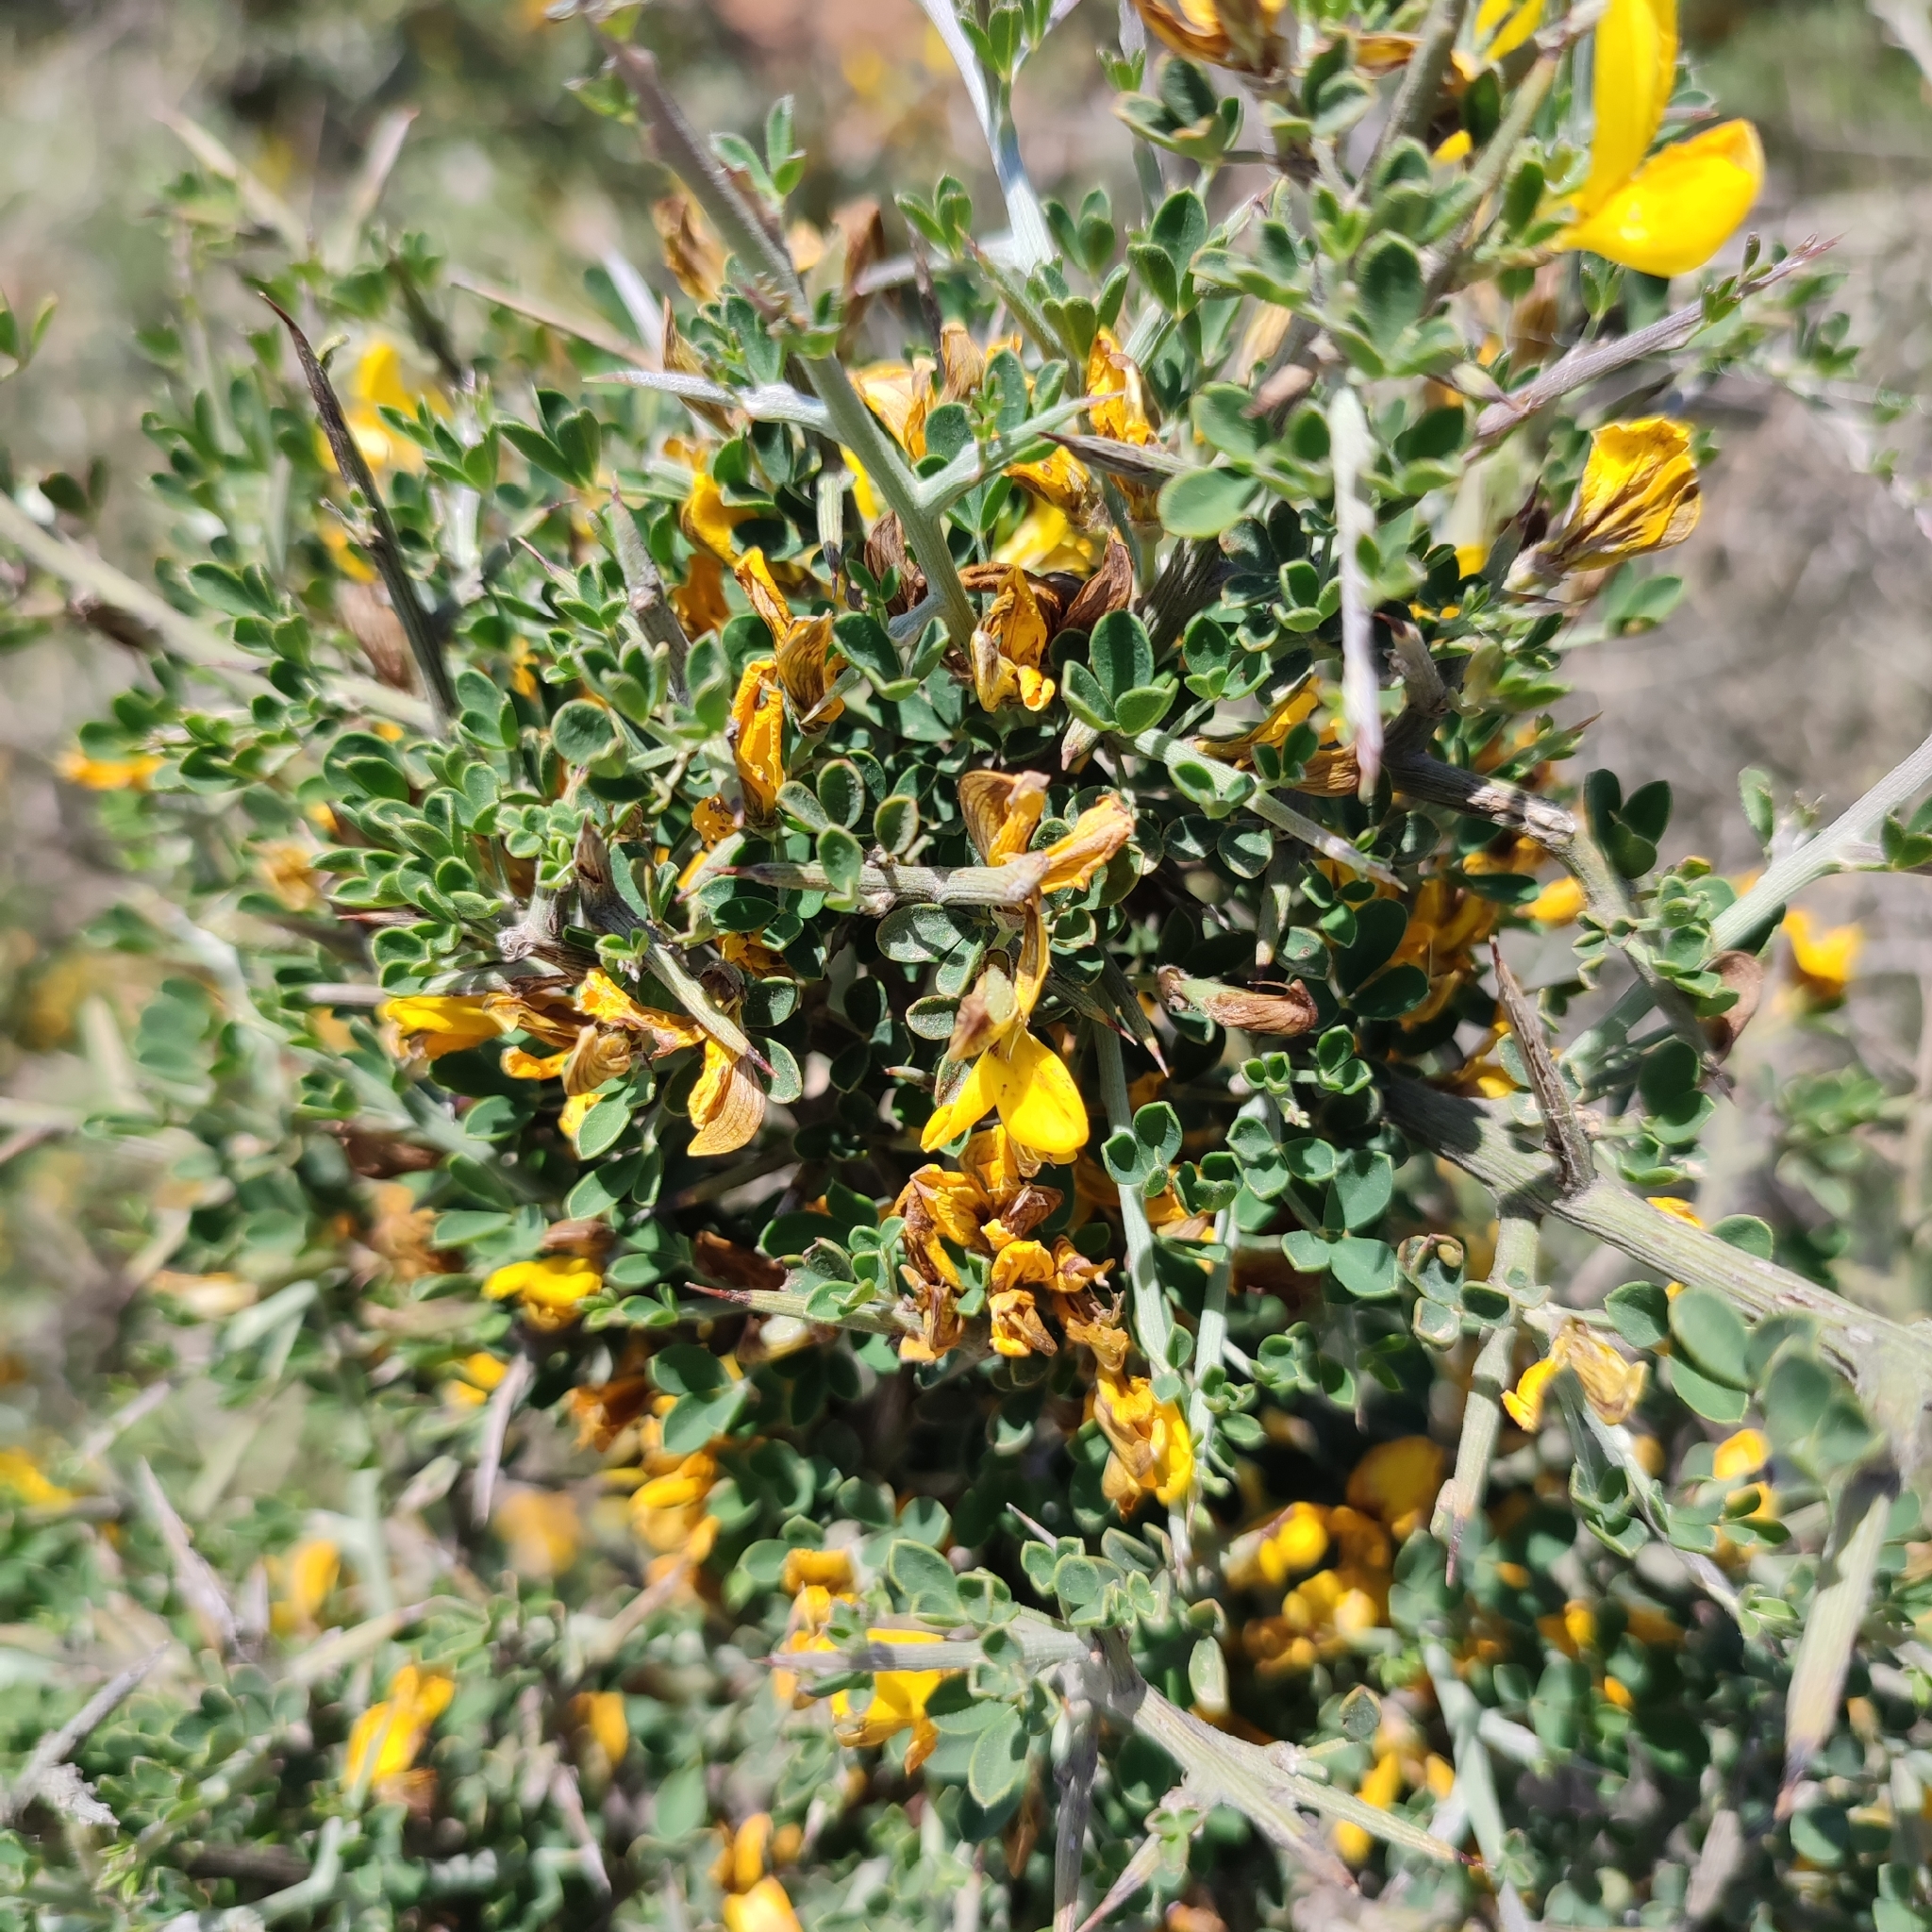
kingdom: Plantae
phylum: Tracheophyta
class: Magnoliopsida
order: Fabales
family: Fabaceae
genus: Calicotome
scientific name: Calicotome villosa
